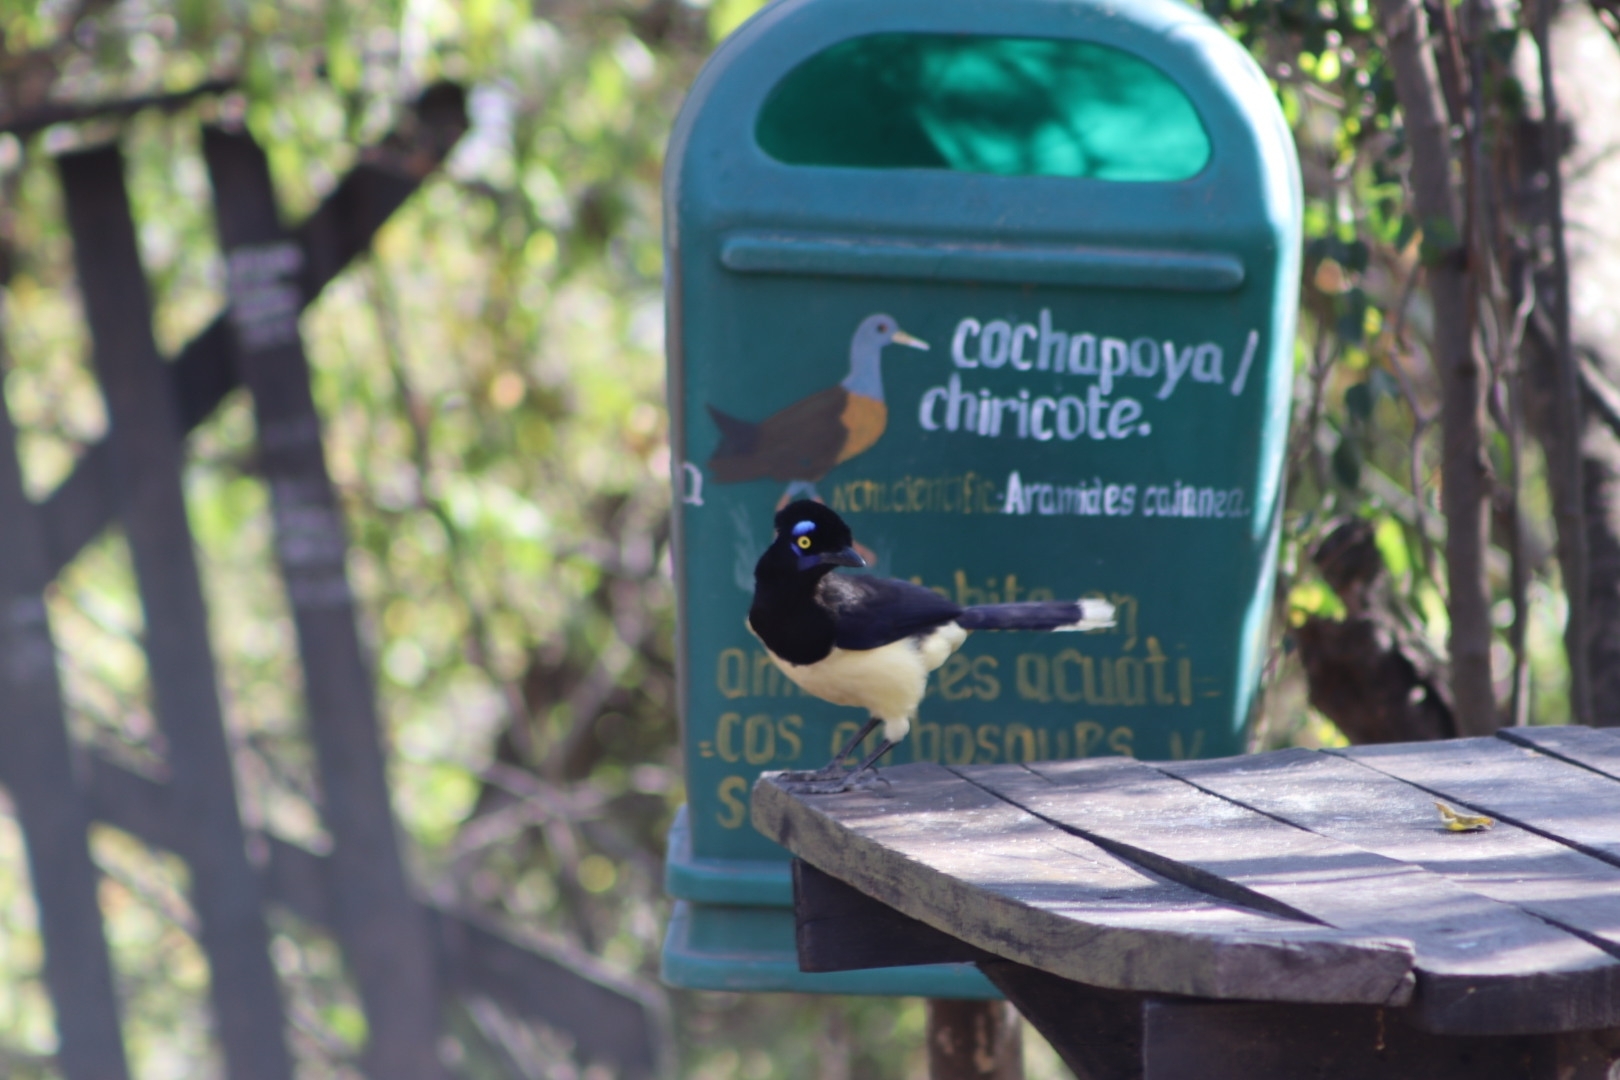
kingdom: Animalia
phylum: Chordata
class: Aves
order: Passeriformes
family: Corvidae
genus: Cyanocorax
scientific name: Cyanocorax chrysops
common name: Plush-crested jay
